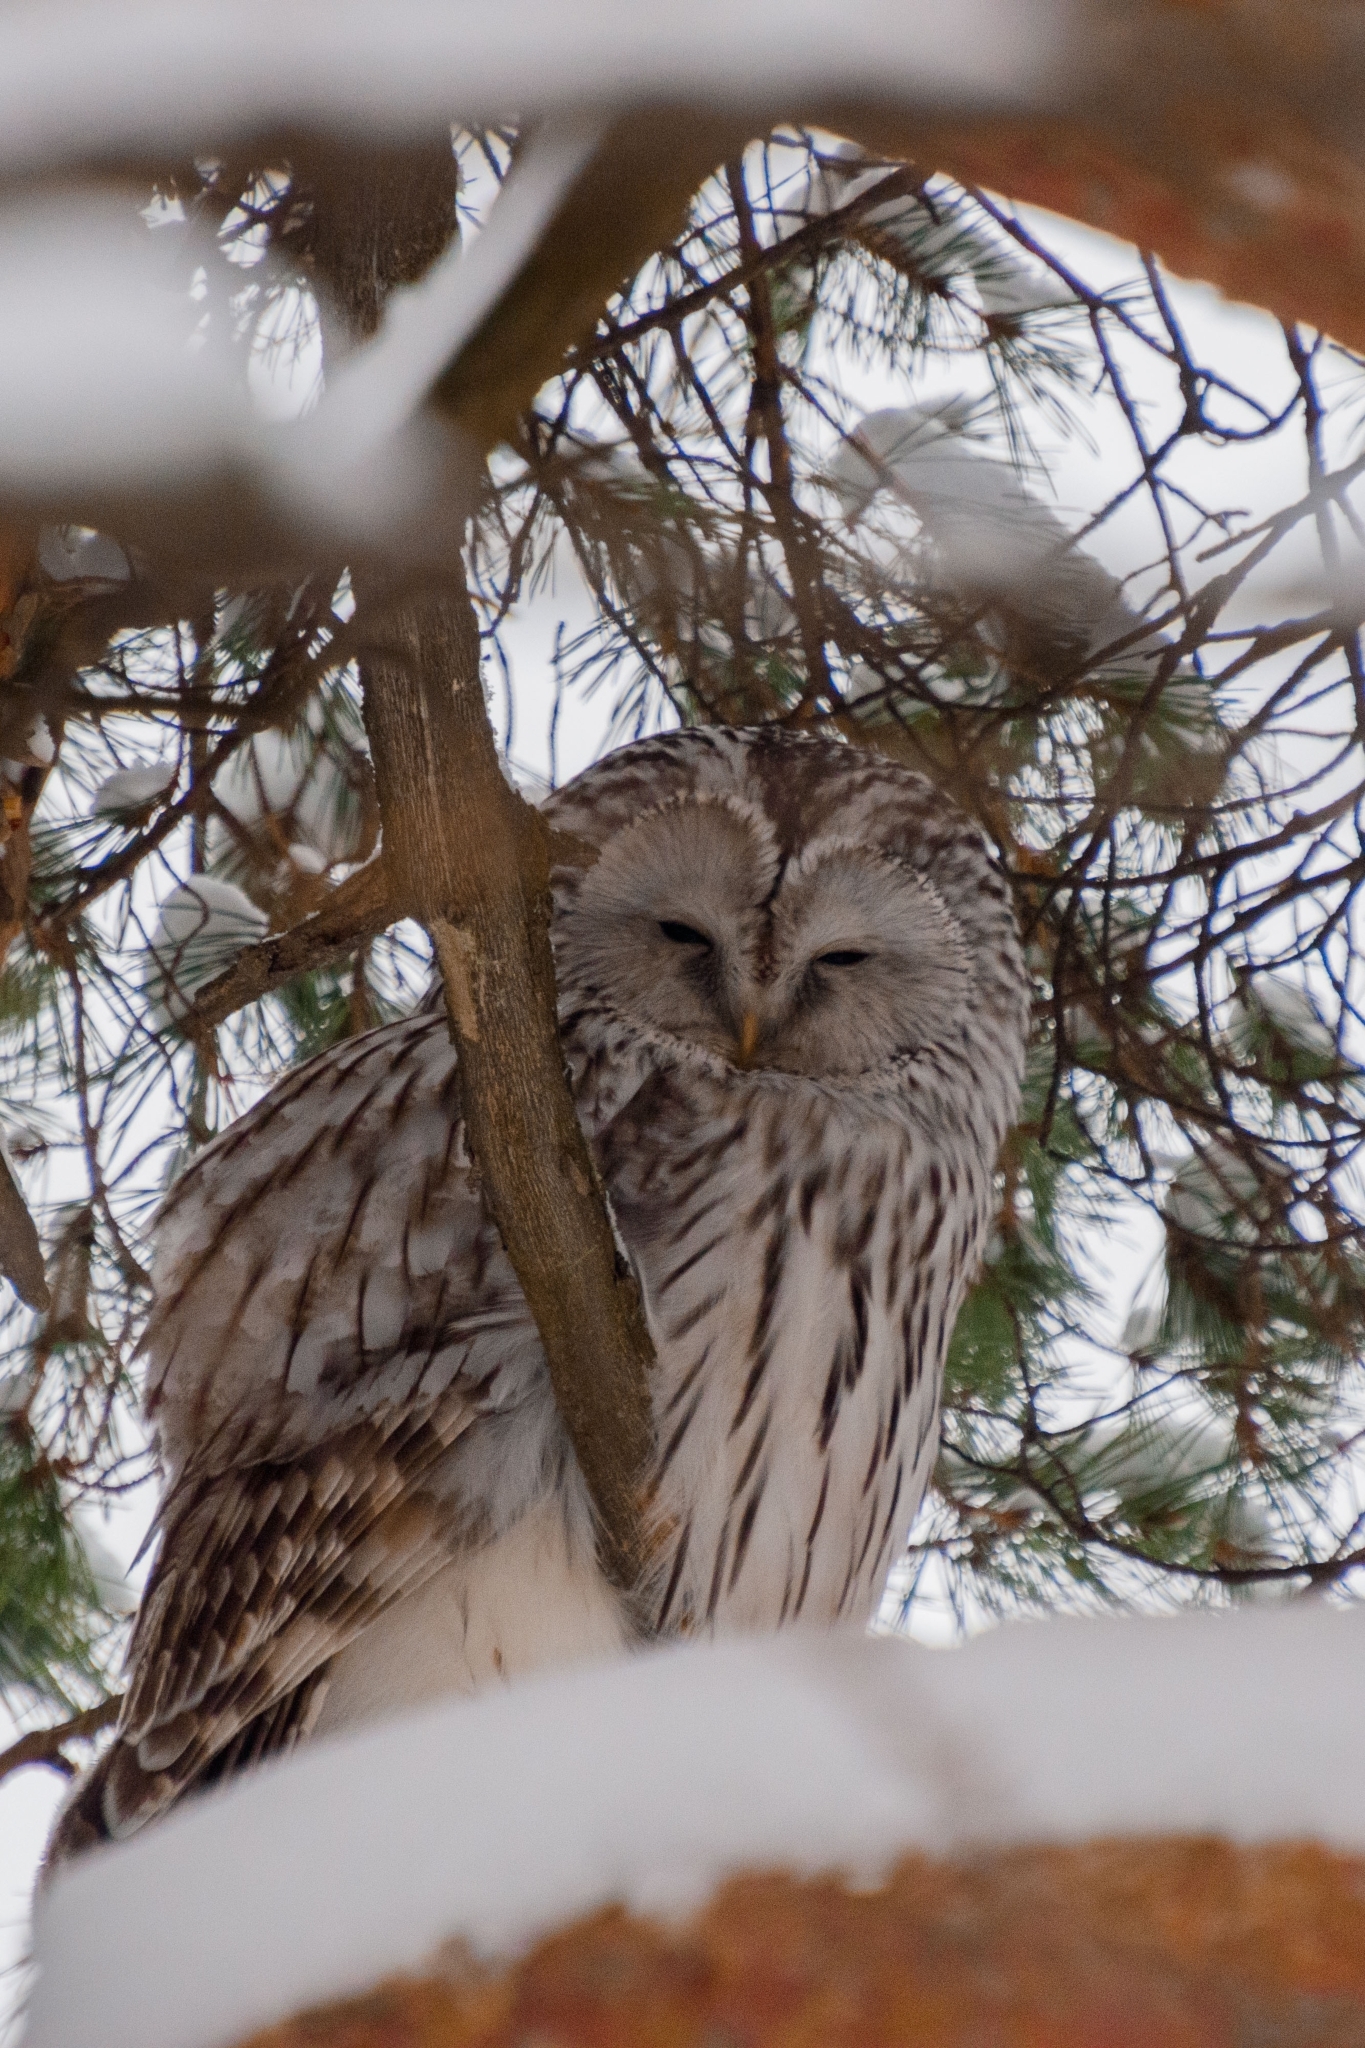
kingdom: Animalia
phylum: Chordata
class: Aves
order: Strigiformes
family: Strigidae
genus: Strix
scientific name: Strix uralensis
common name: Ural owl
